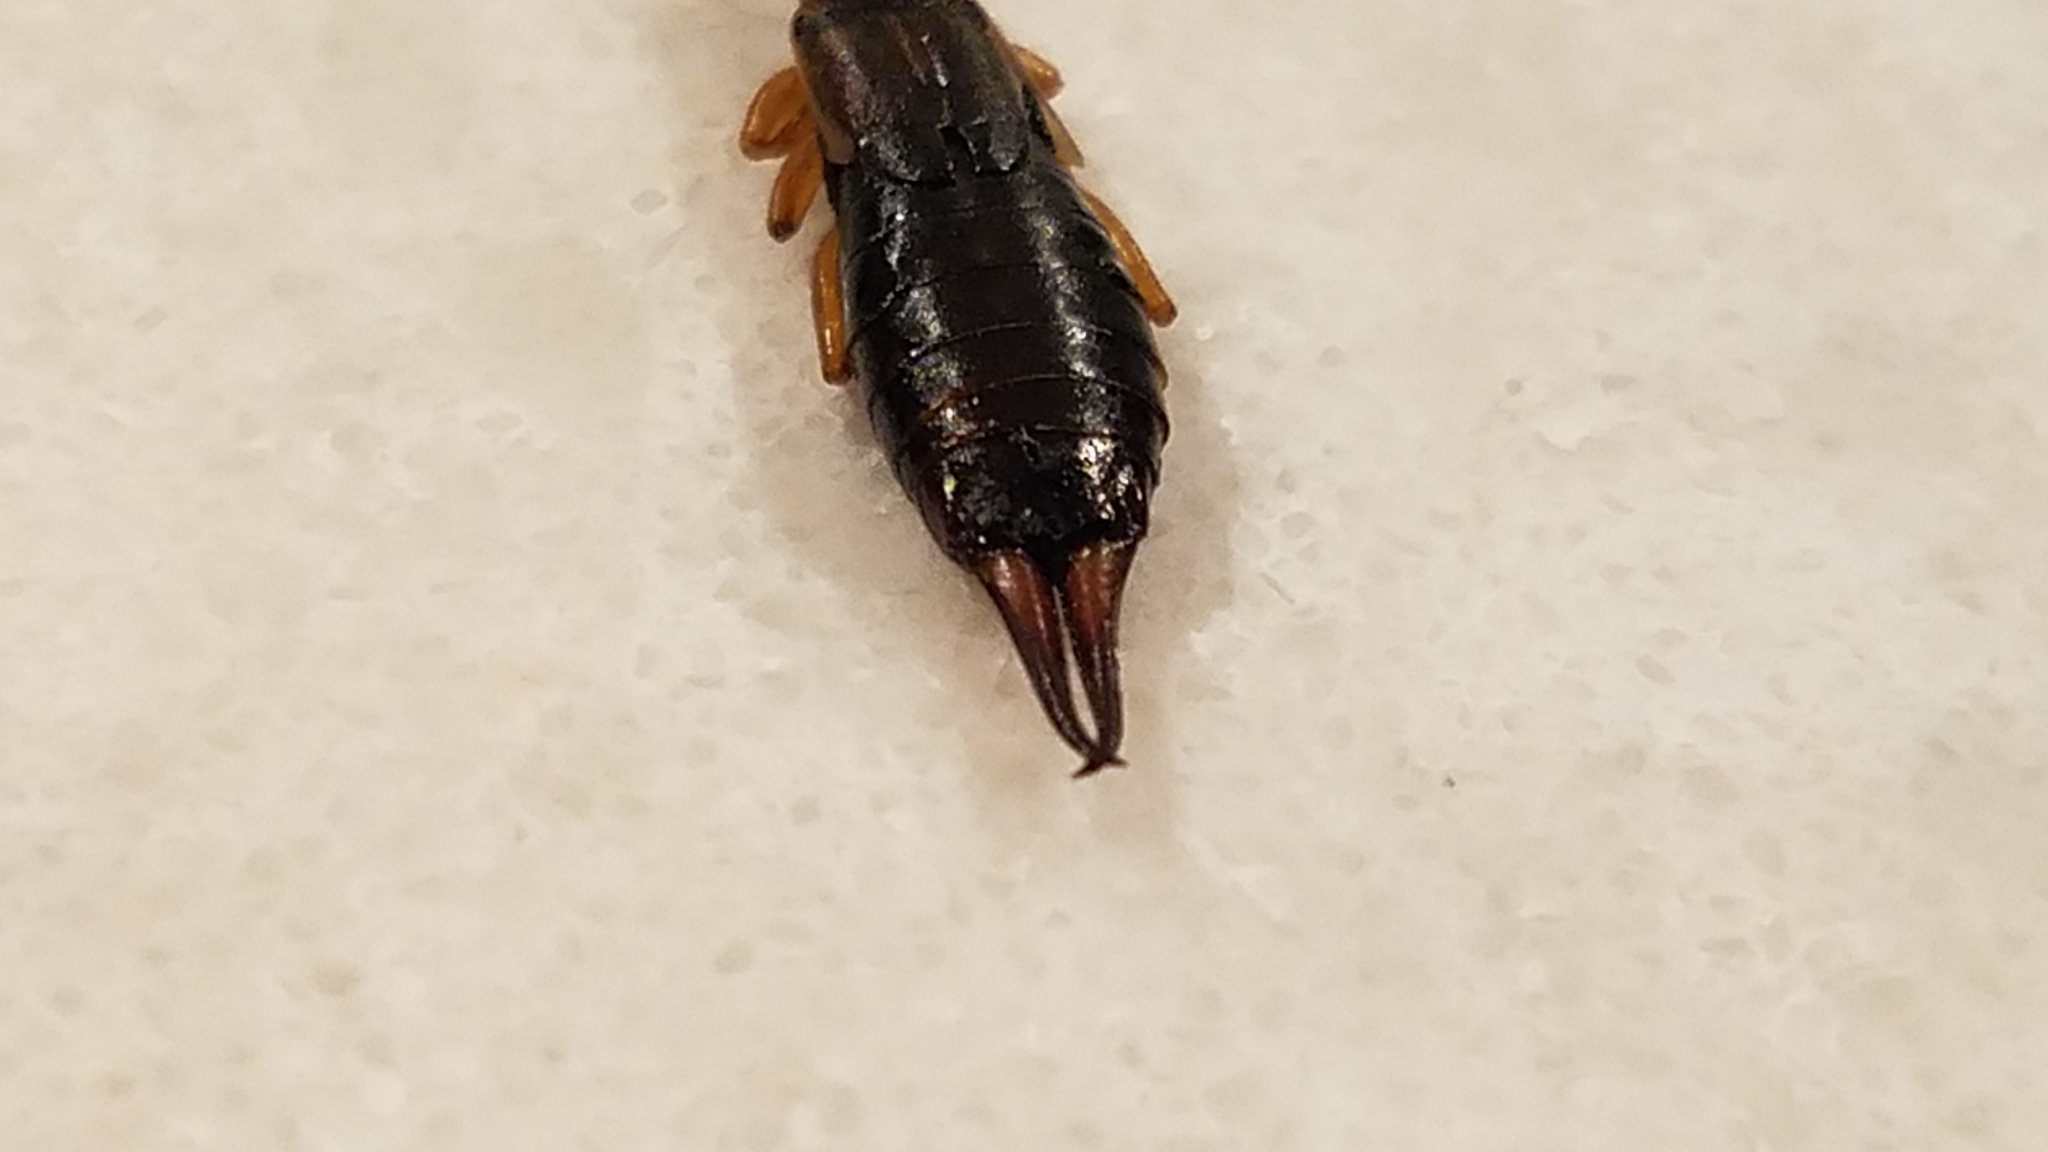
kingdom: Animalia
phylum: Arthropoda
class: Insecta
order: Dermaptera
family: Forficulidae
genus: Forficula
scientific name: Forficula
